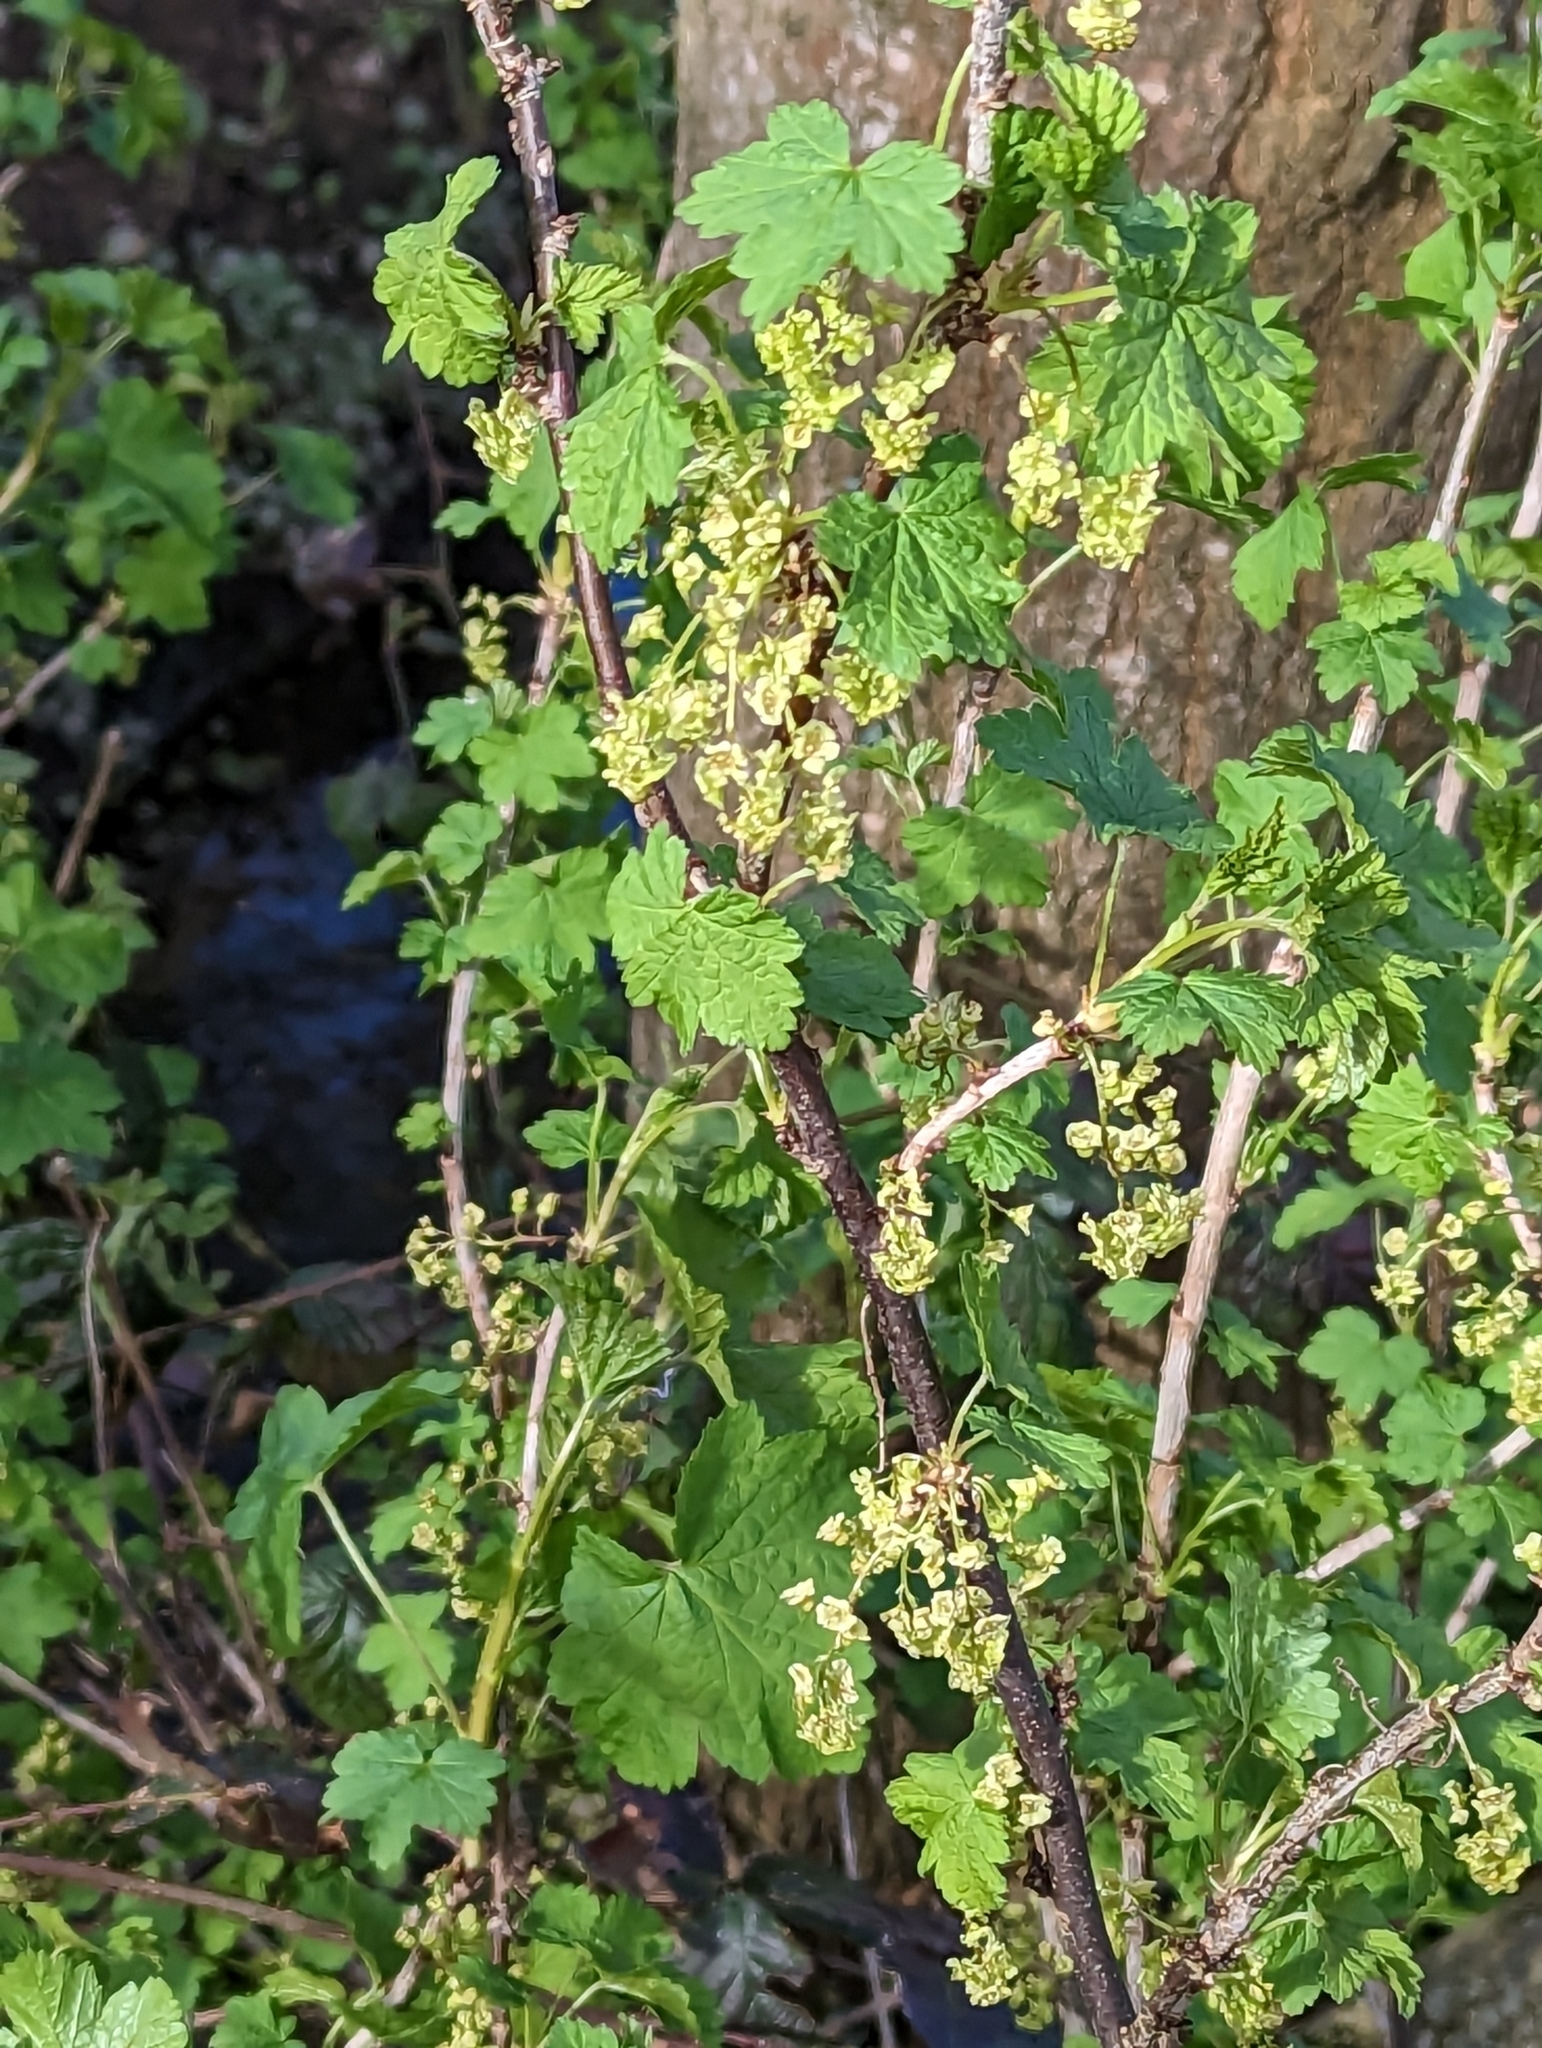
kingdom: Plantae
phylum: Tracheophyta
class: Magnoliopsida
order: Saxifragales
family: Grossulariaceae
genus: Ribes
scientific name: Ribes rubrum
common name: Red currant
